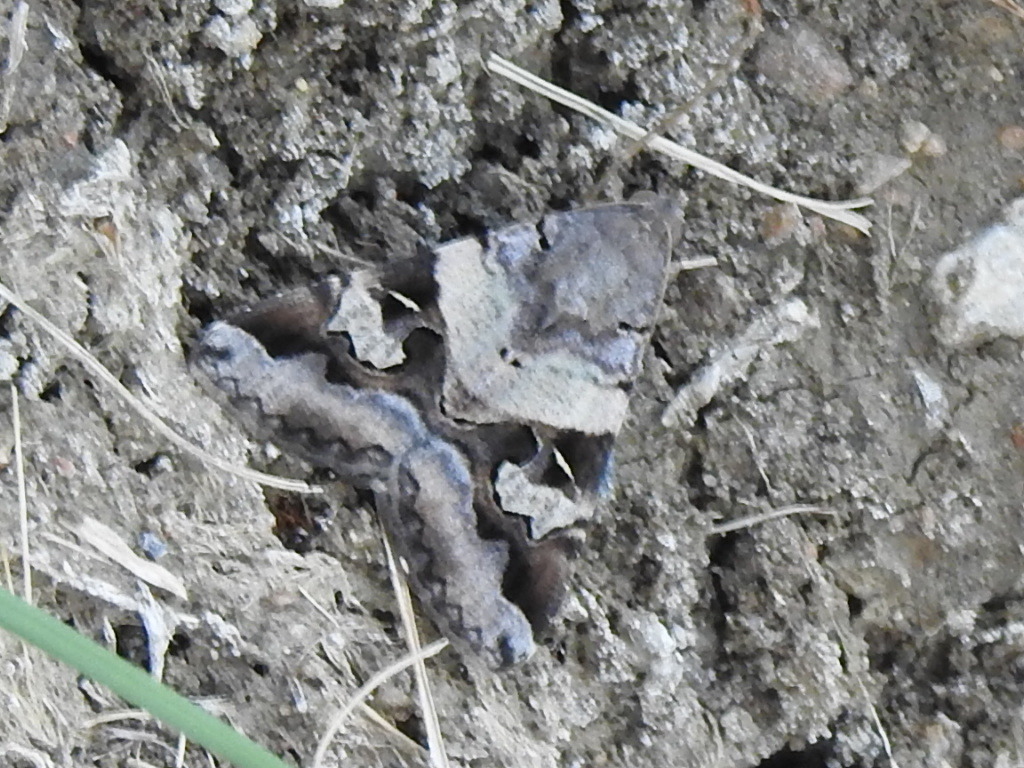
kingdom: Animalia
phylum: Arthropoda
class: Insecta
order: Lepidoptera
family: Erebidae
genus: Melipotis
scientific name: Melipotis indomita
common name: Moth
